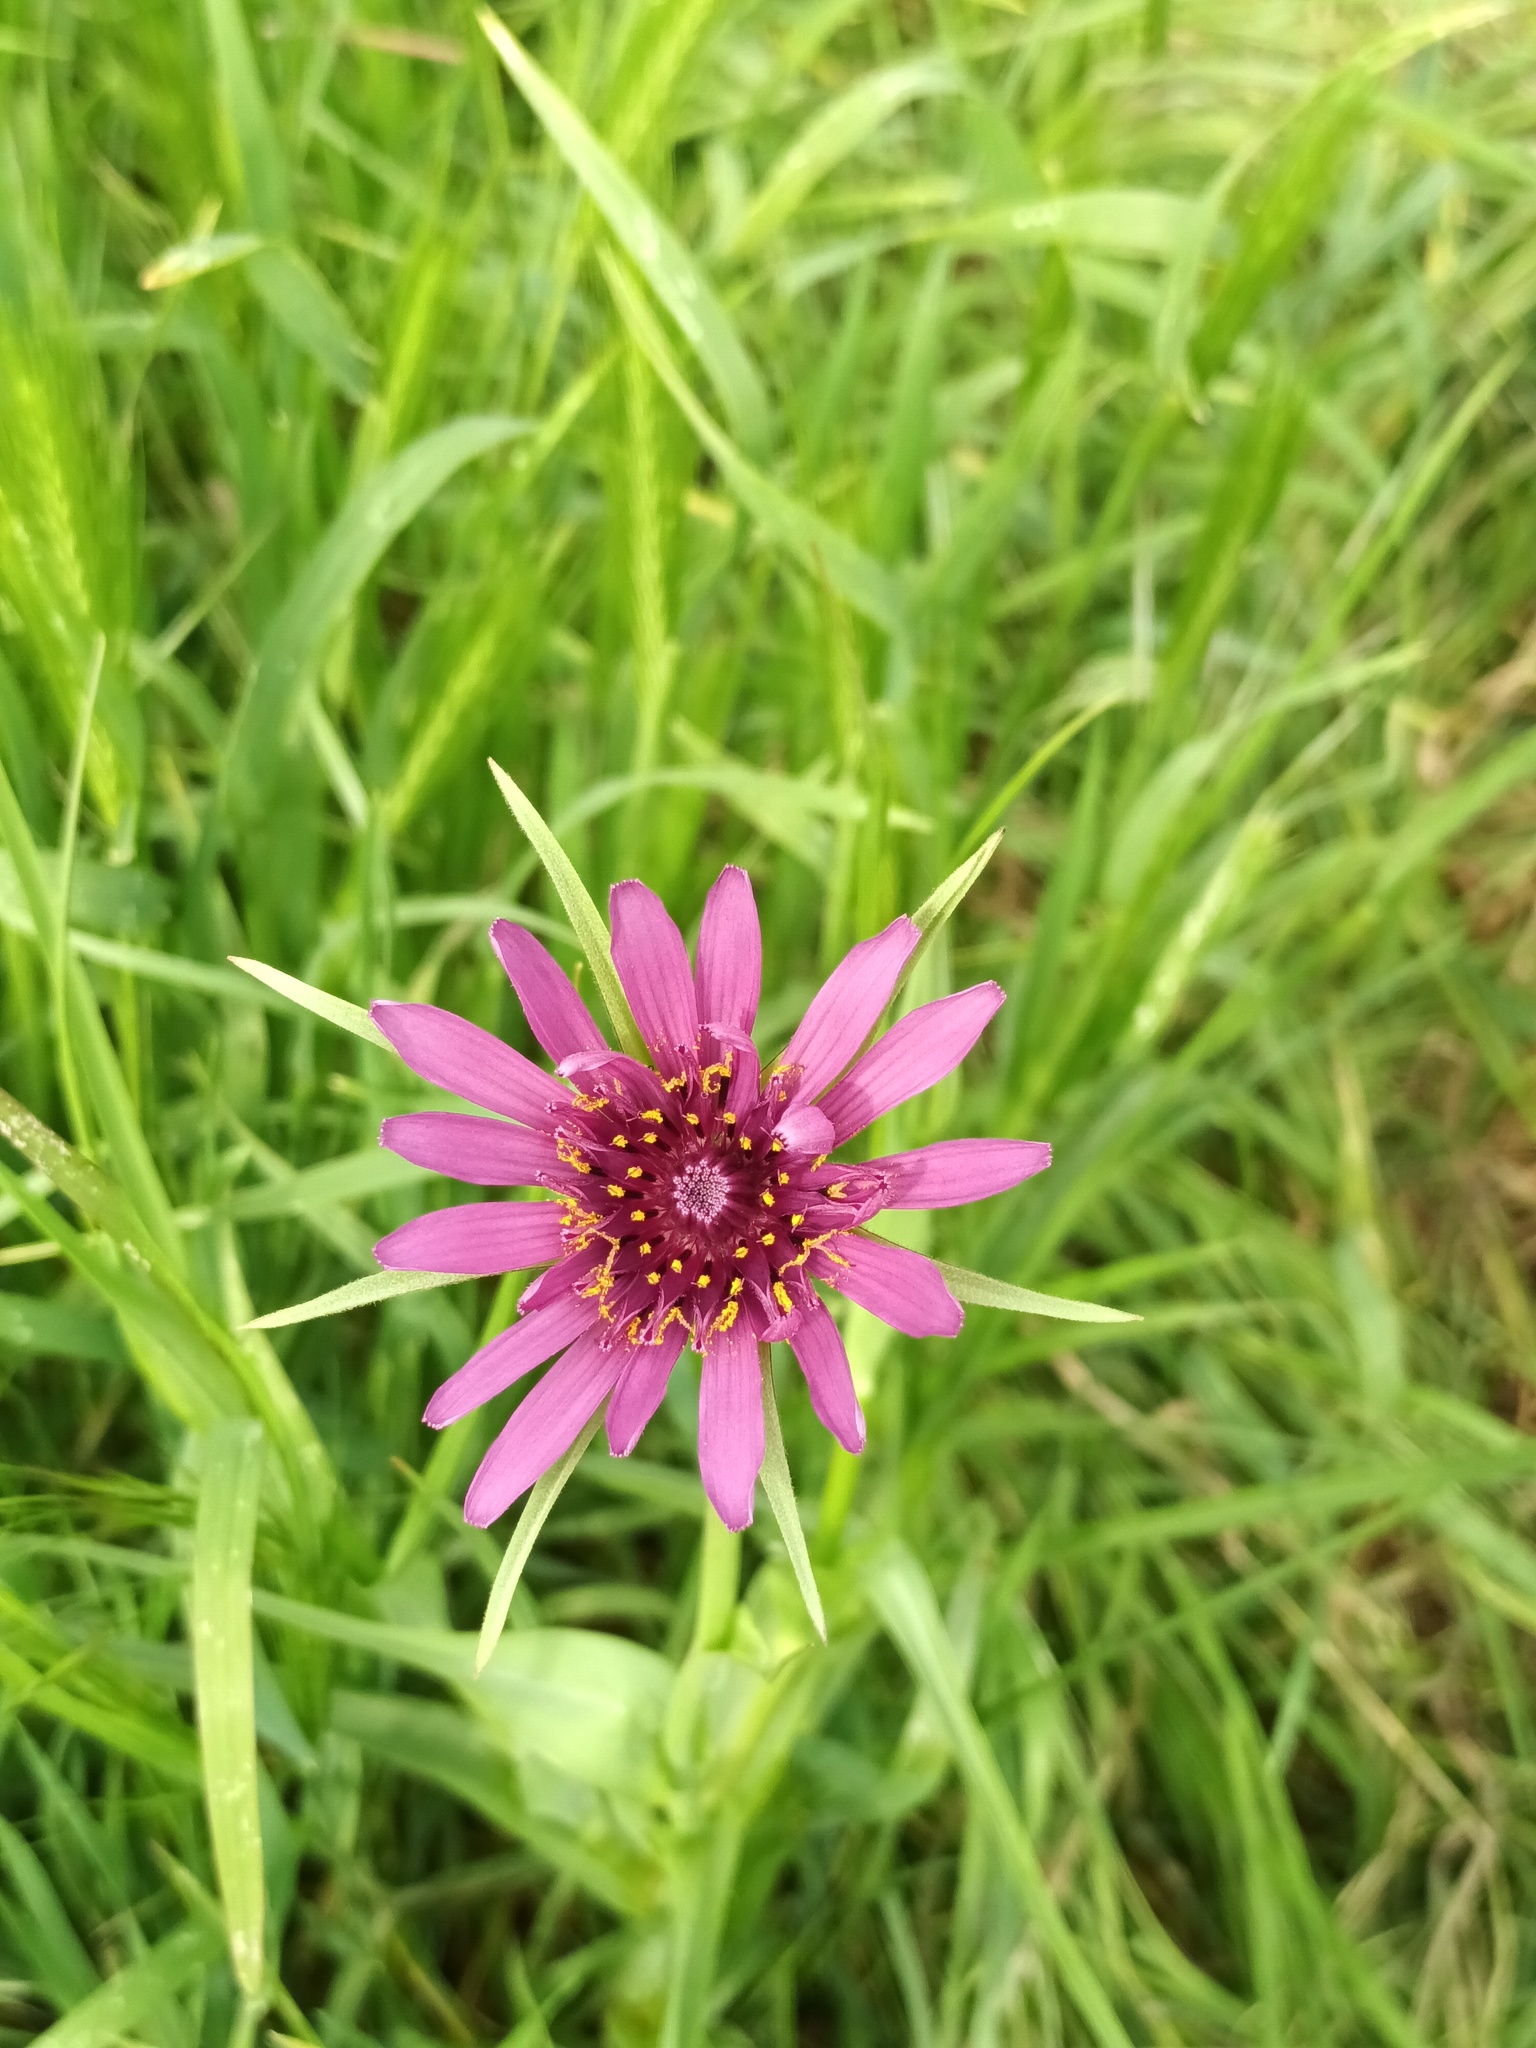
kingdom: Plantae
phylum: Tracheophyta
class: Magnoliopsida
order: Asterales
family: Asteraceae
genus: Tragopogon
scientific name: Tragopogon porrifolius
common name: Salsify
